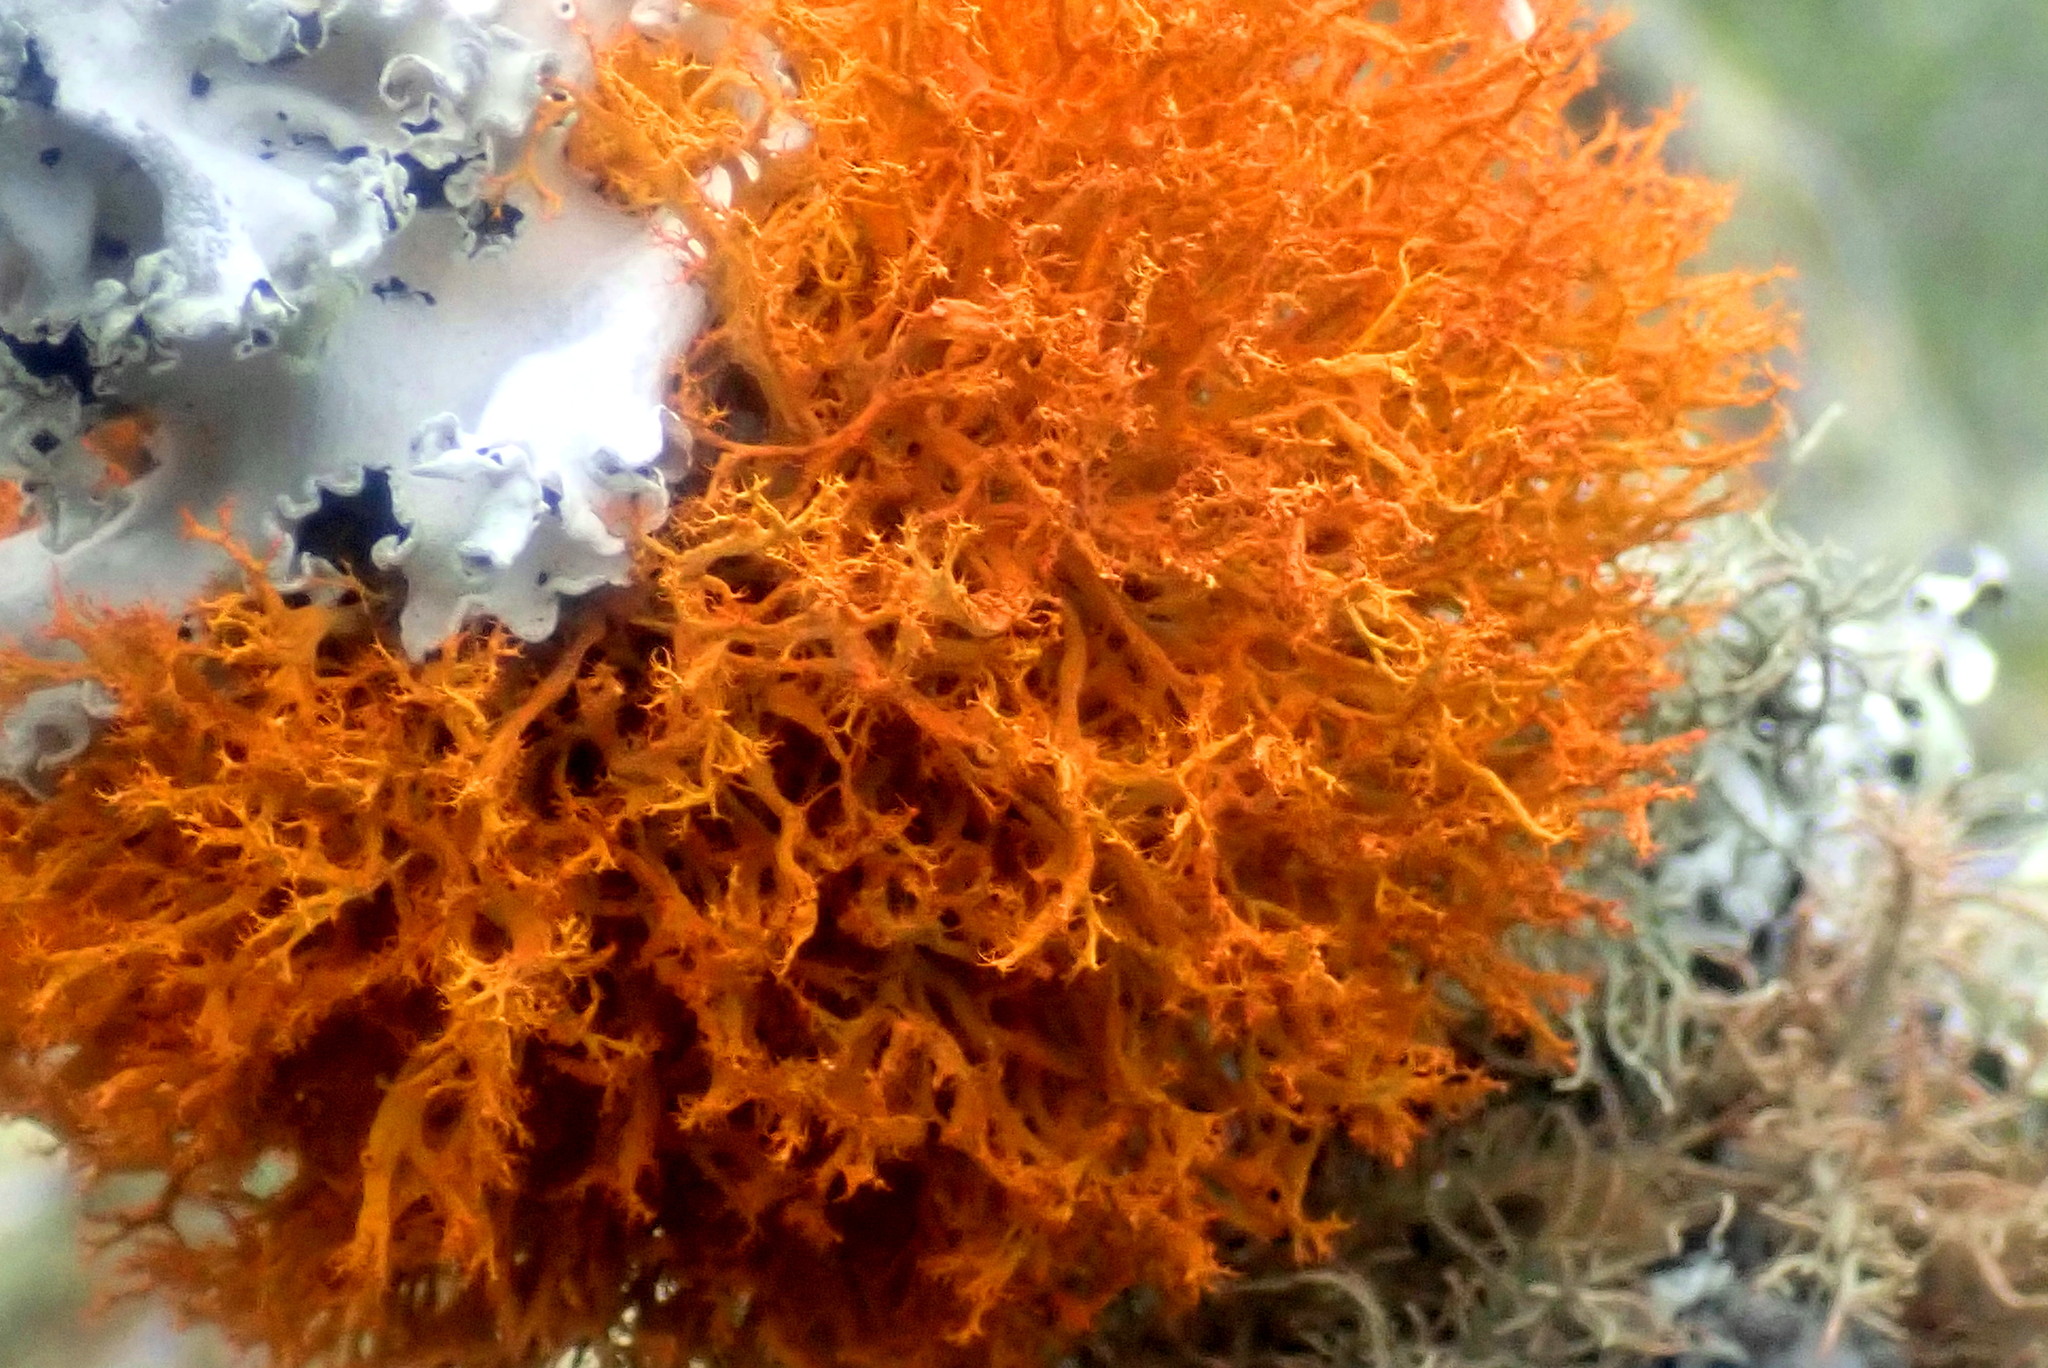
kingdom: Fungi
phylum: Ascomycota
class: Lecanoromycetes
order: Teloschistales
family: Teloschistaceae
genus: Teloschistes
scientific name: Teloschistes inflatus
